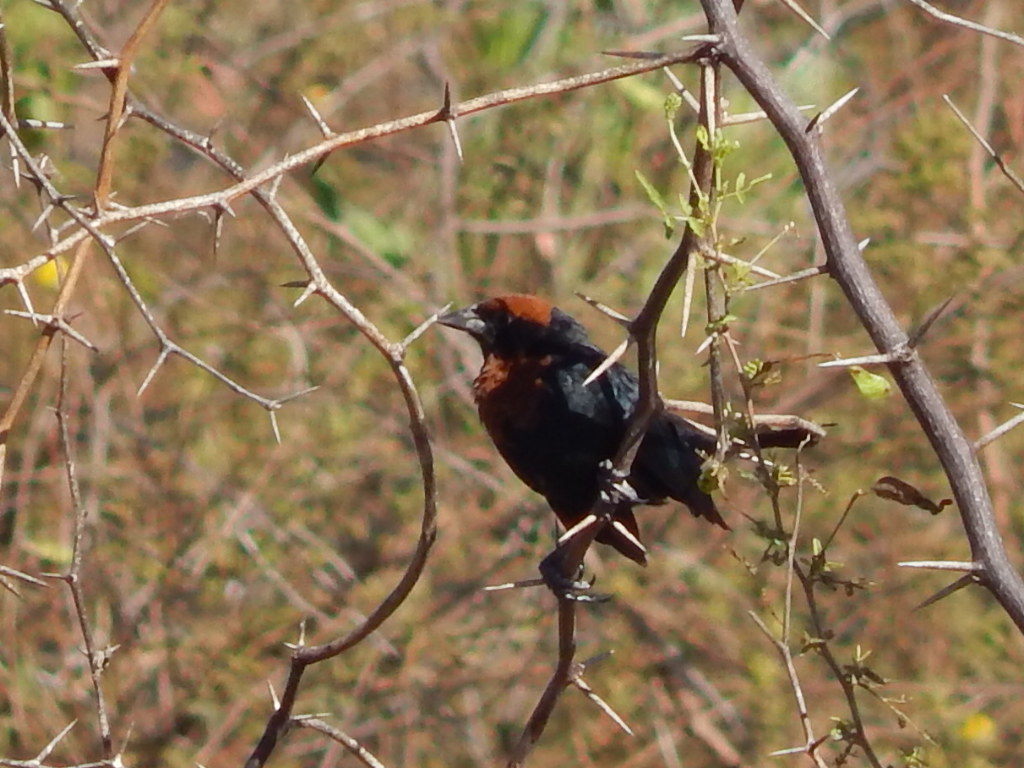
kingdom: Animalia
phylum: Chordata
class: Aves
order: Passeriformes
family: Icteridae
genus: Chrysomus
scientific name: Chrysomus ruficapillus
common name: Chestnut-capped blackbird
